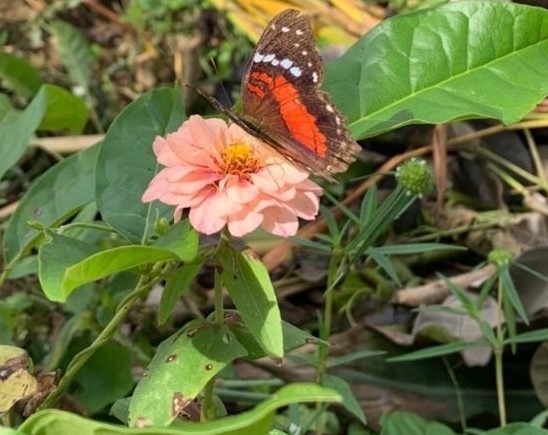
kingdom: Animalia
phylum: Arthropoda
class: Insecta
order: Lepidoptera
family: Nymphalidae
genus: Anartia
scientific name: Anartia fatima
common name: Banded peacock
